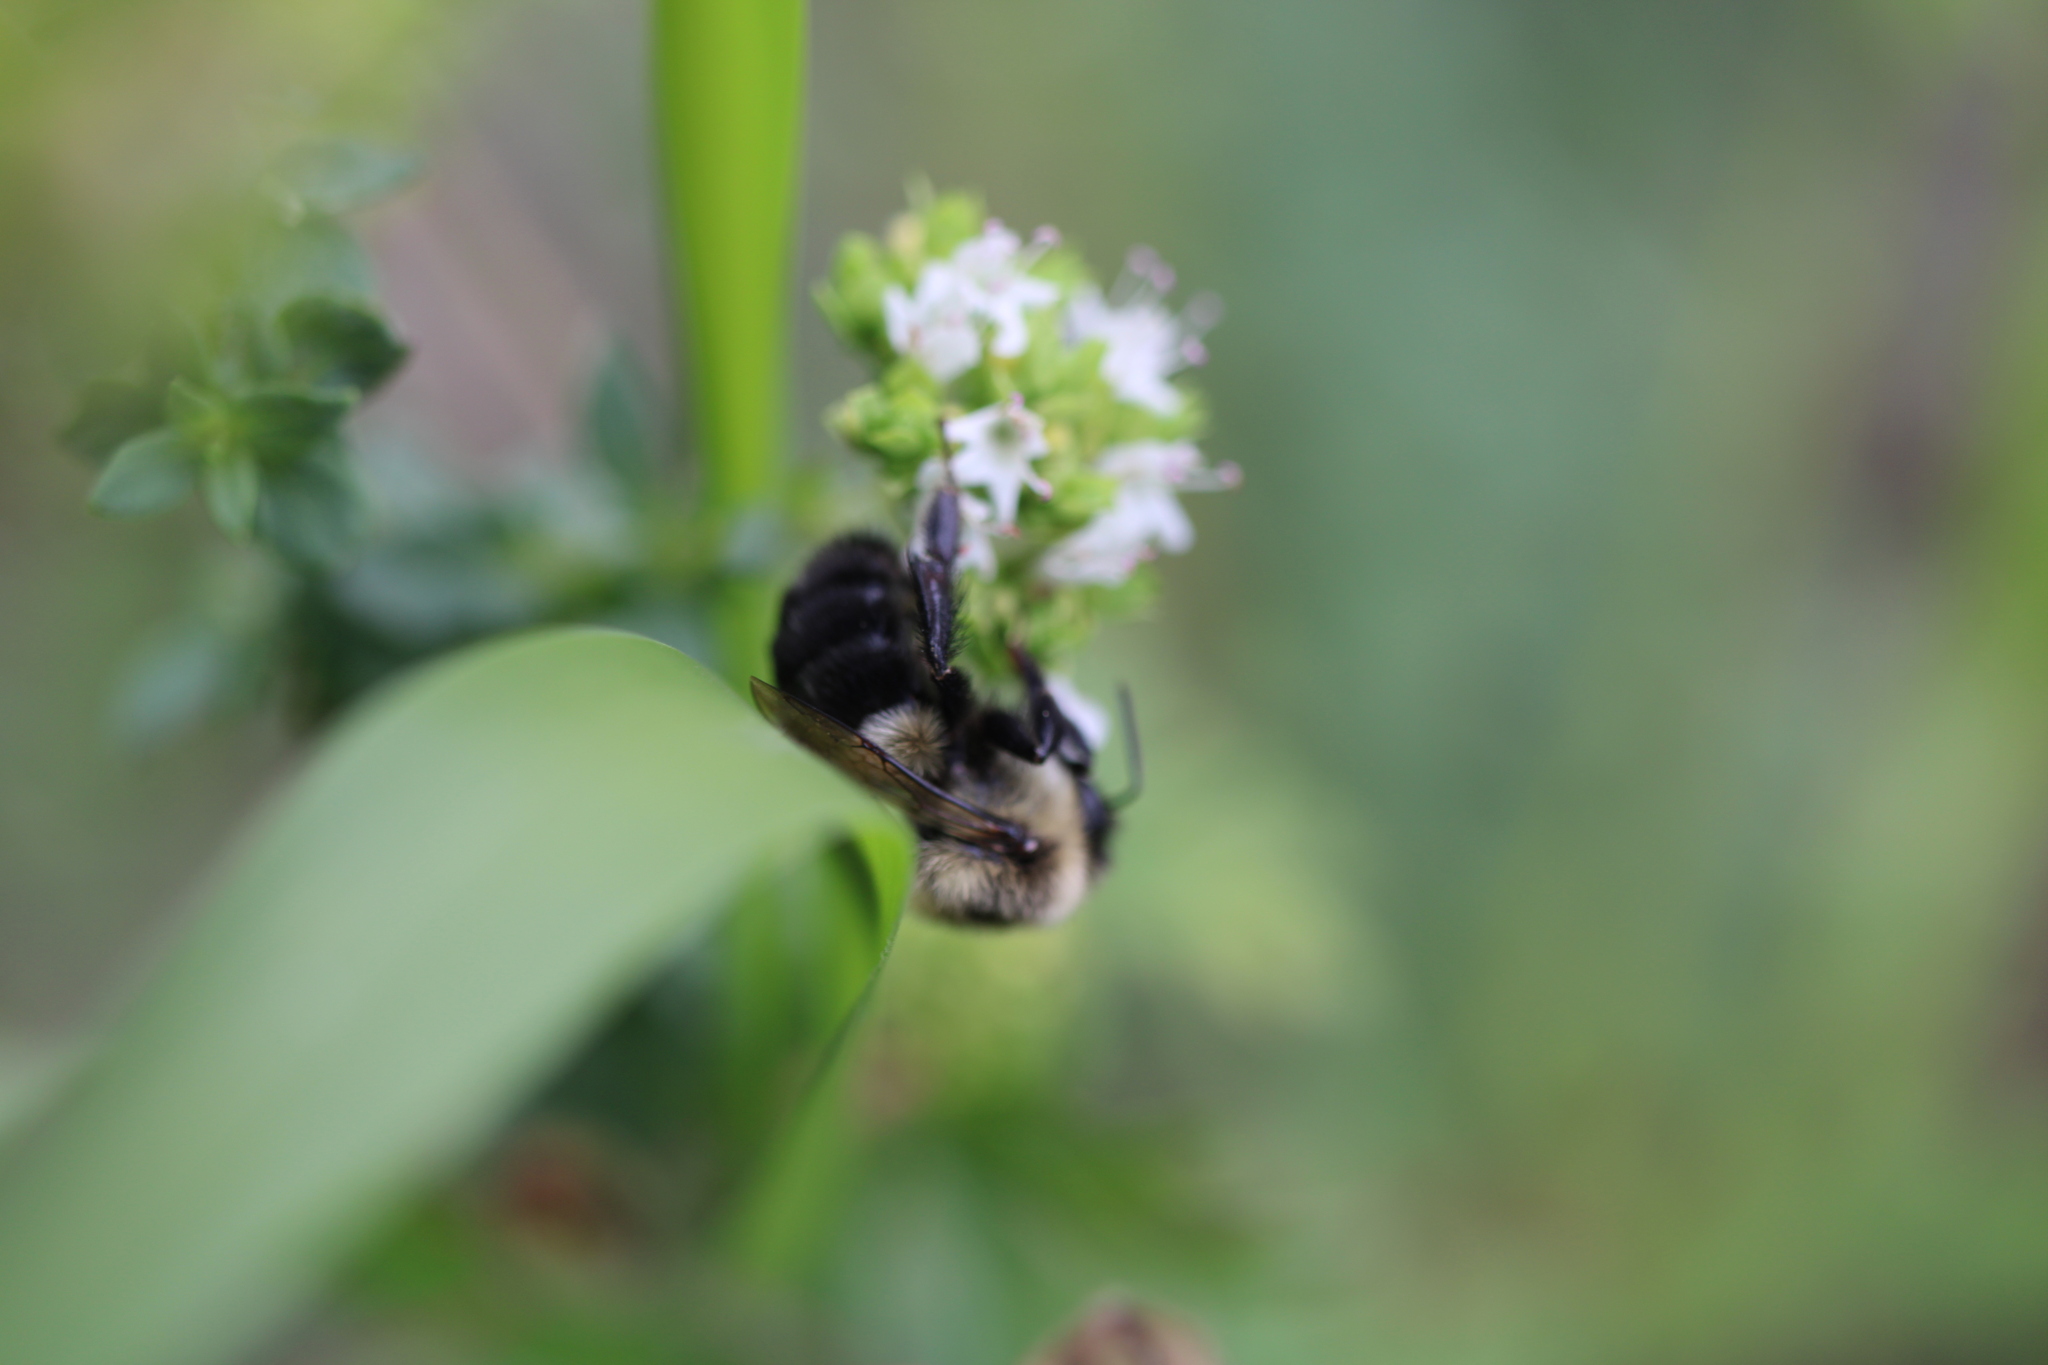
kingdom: Animalia
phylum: Arthropoda
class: Insecta
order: Hymenoptera
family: Apidae
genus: Bombus
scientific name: Bombus impatiens
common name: Common eastern bumble bee
